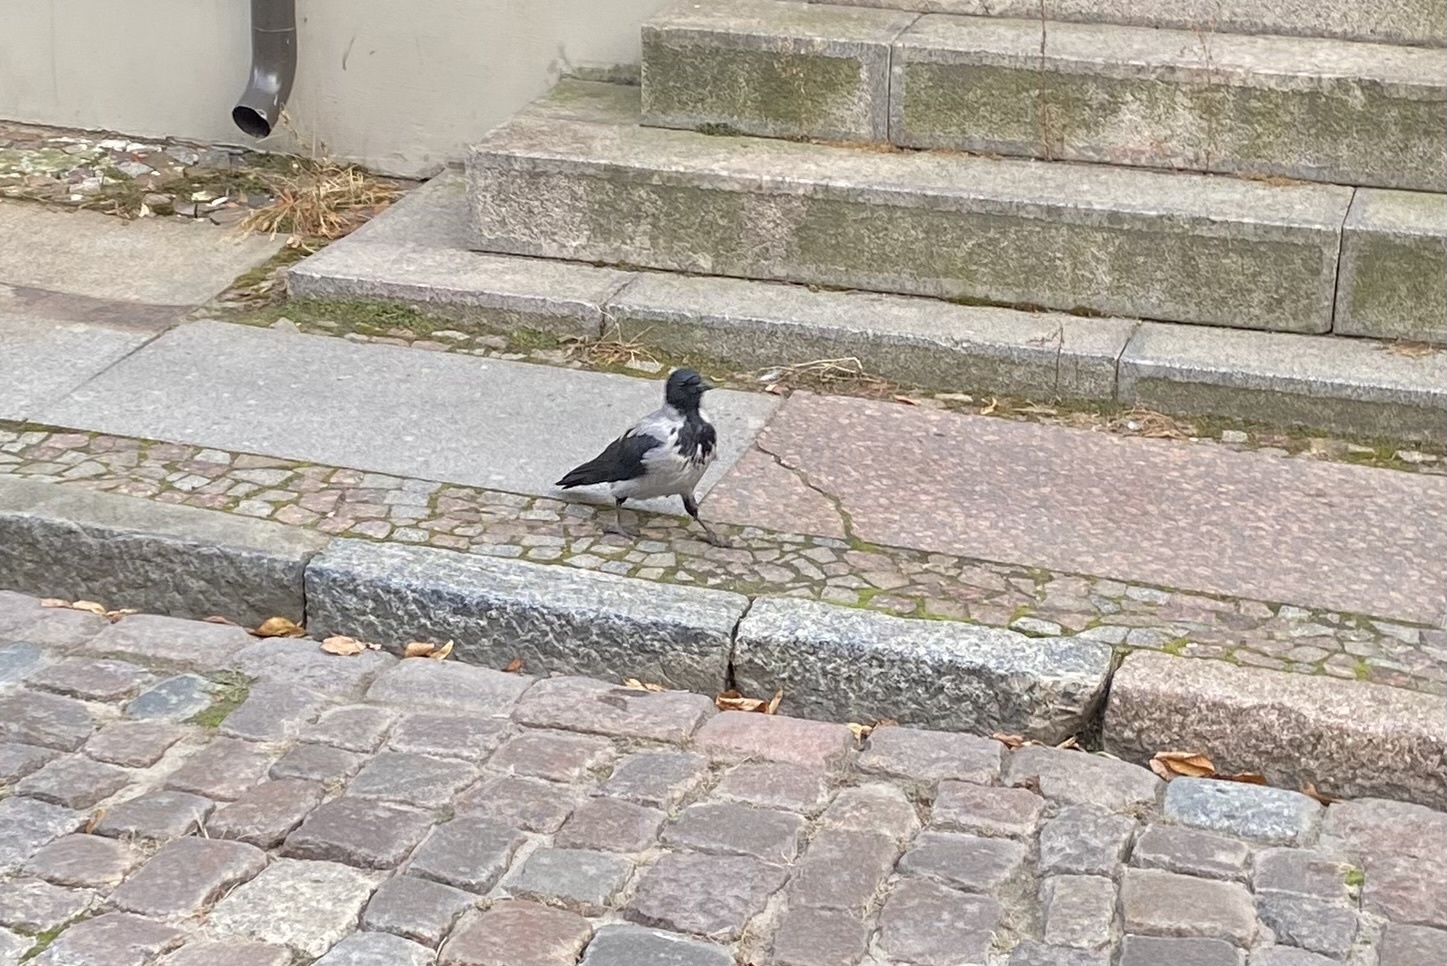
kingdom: Animalia
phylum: Chordata
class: Aves
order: Passeriformes
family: Corvidae
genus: Corvus
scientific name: Corvus cornix
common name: Hooded crow
